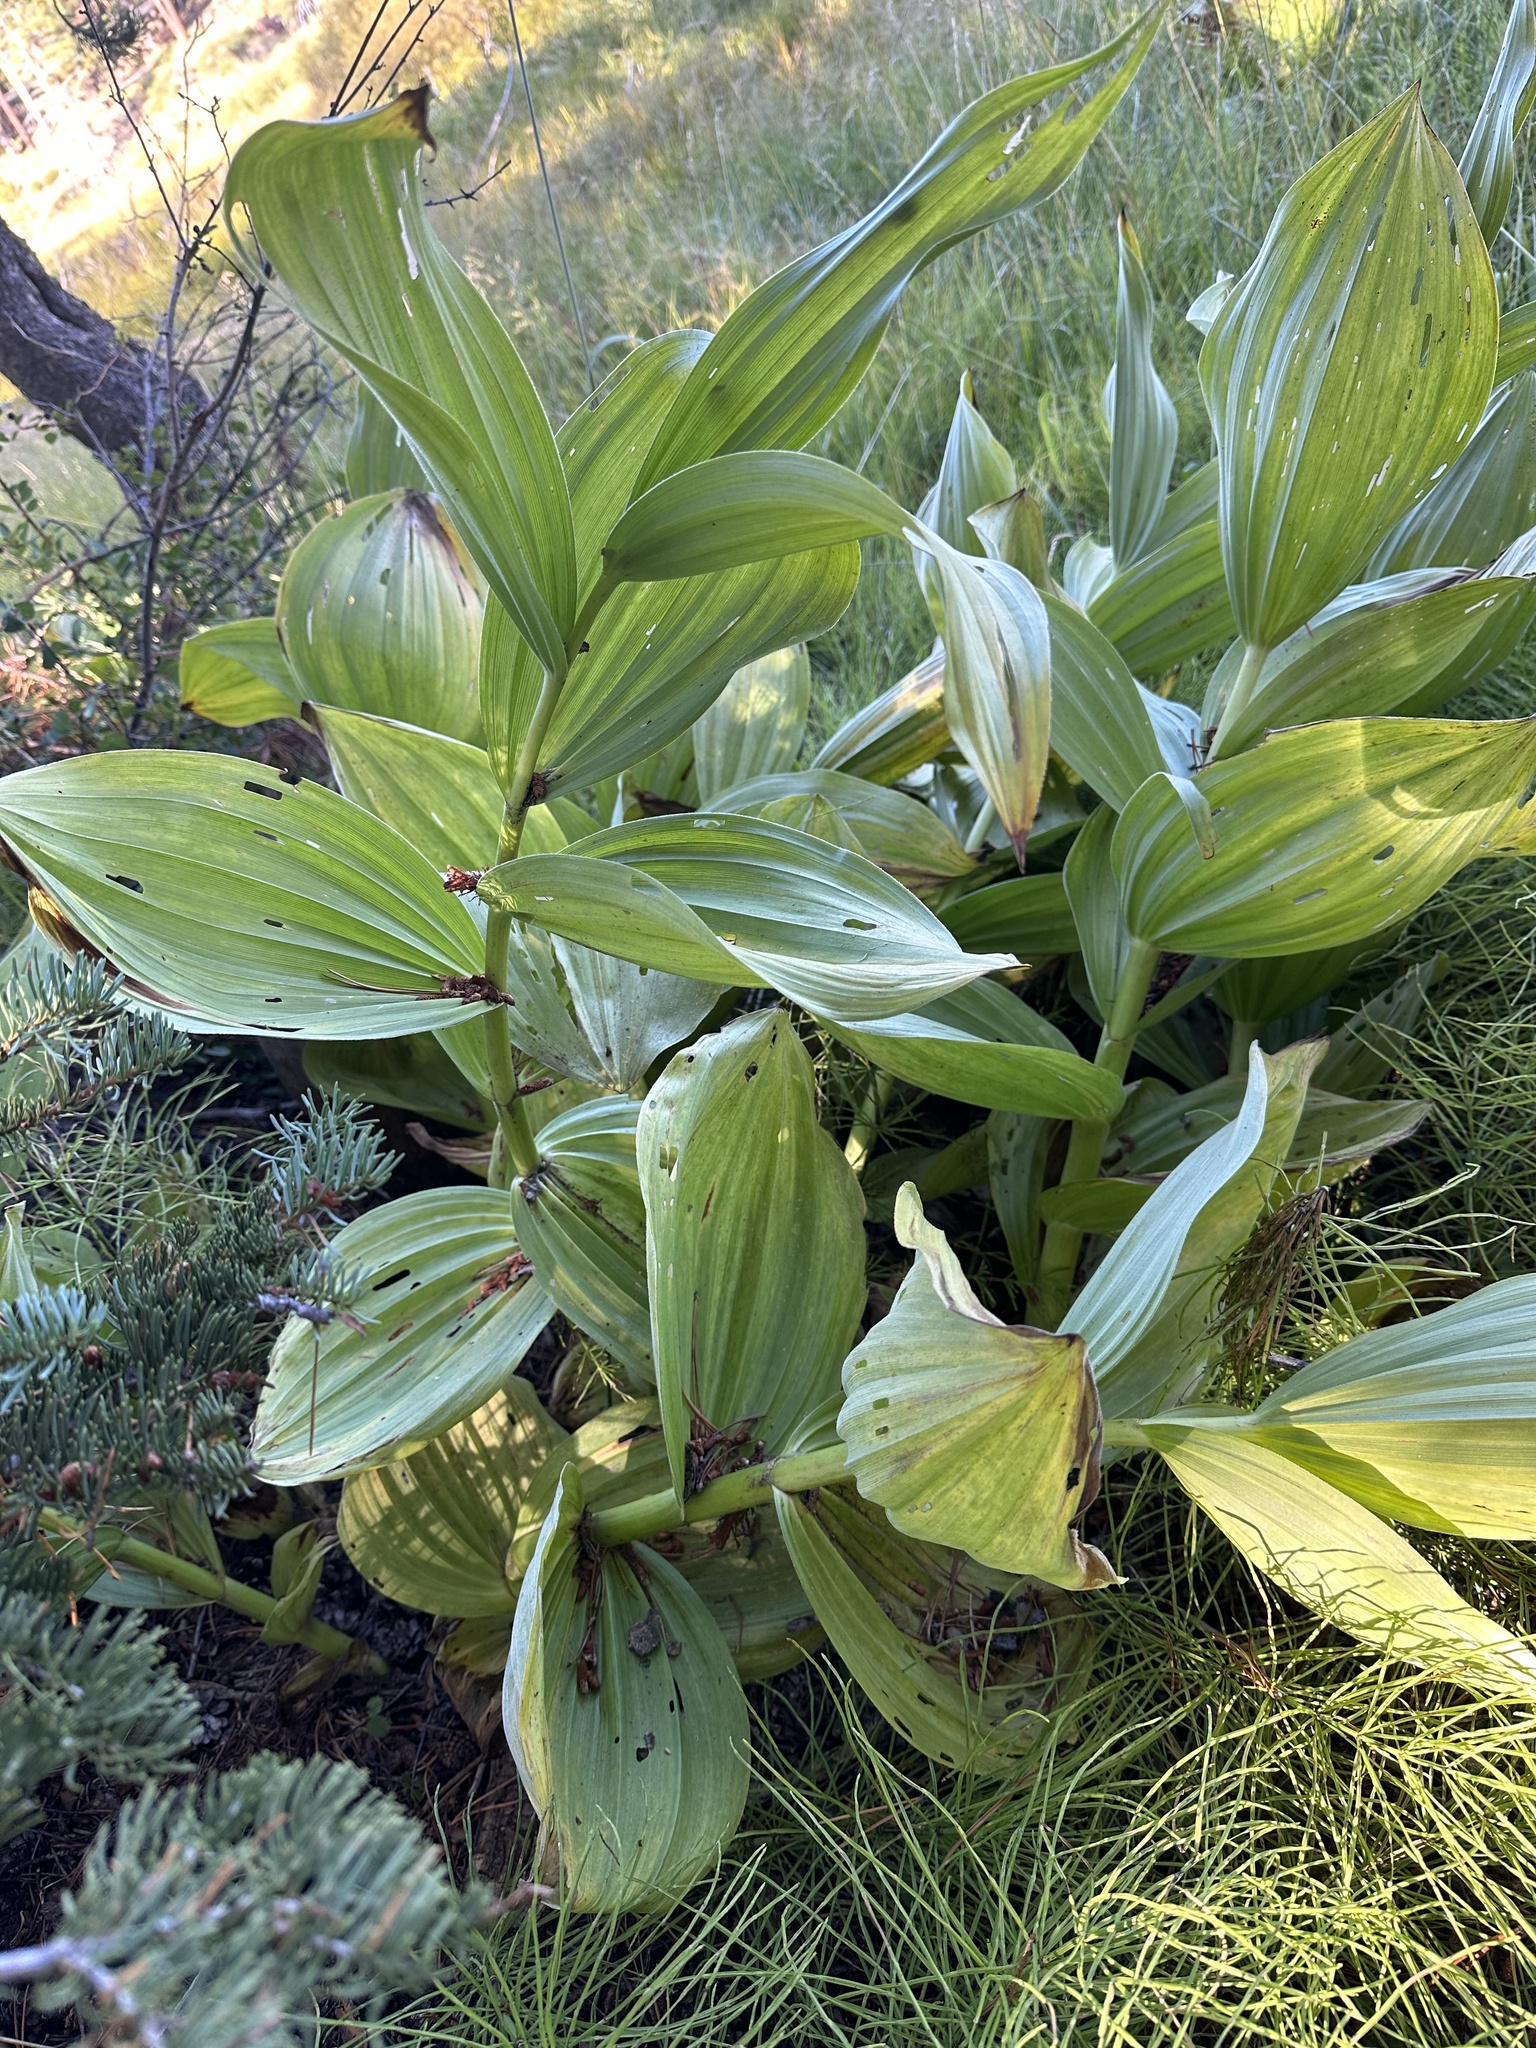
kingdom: Plantae
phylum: Tracheophyta
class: Liliopsida
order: Liliales
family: Melanthiaceae
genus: Veratrum
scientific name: Veratrum californicum
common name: California veratrum
